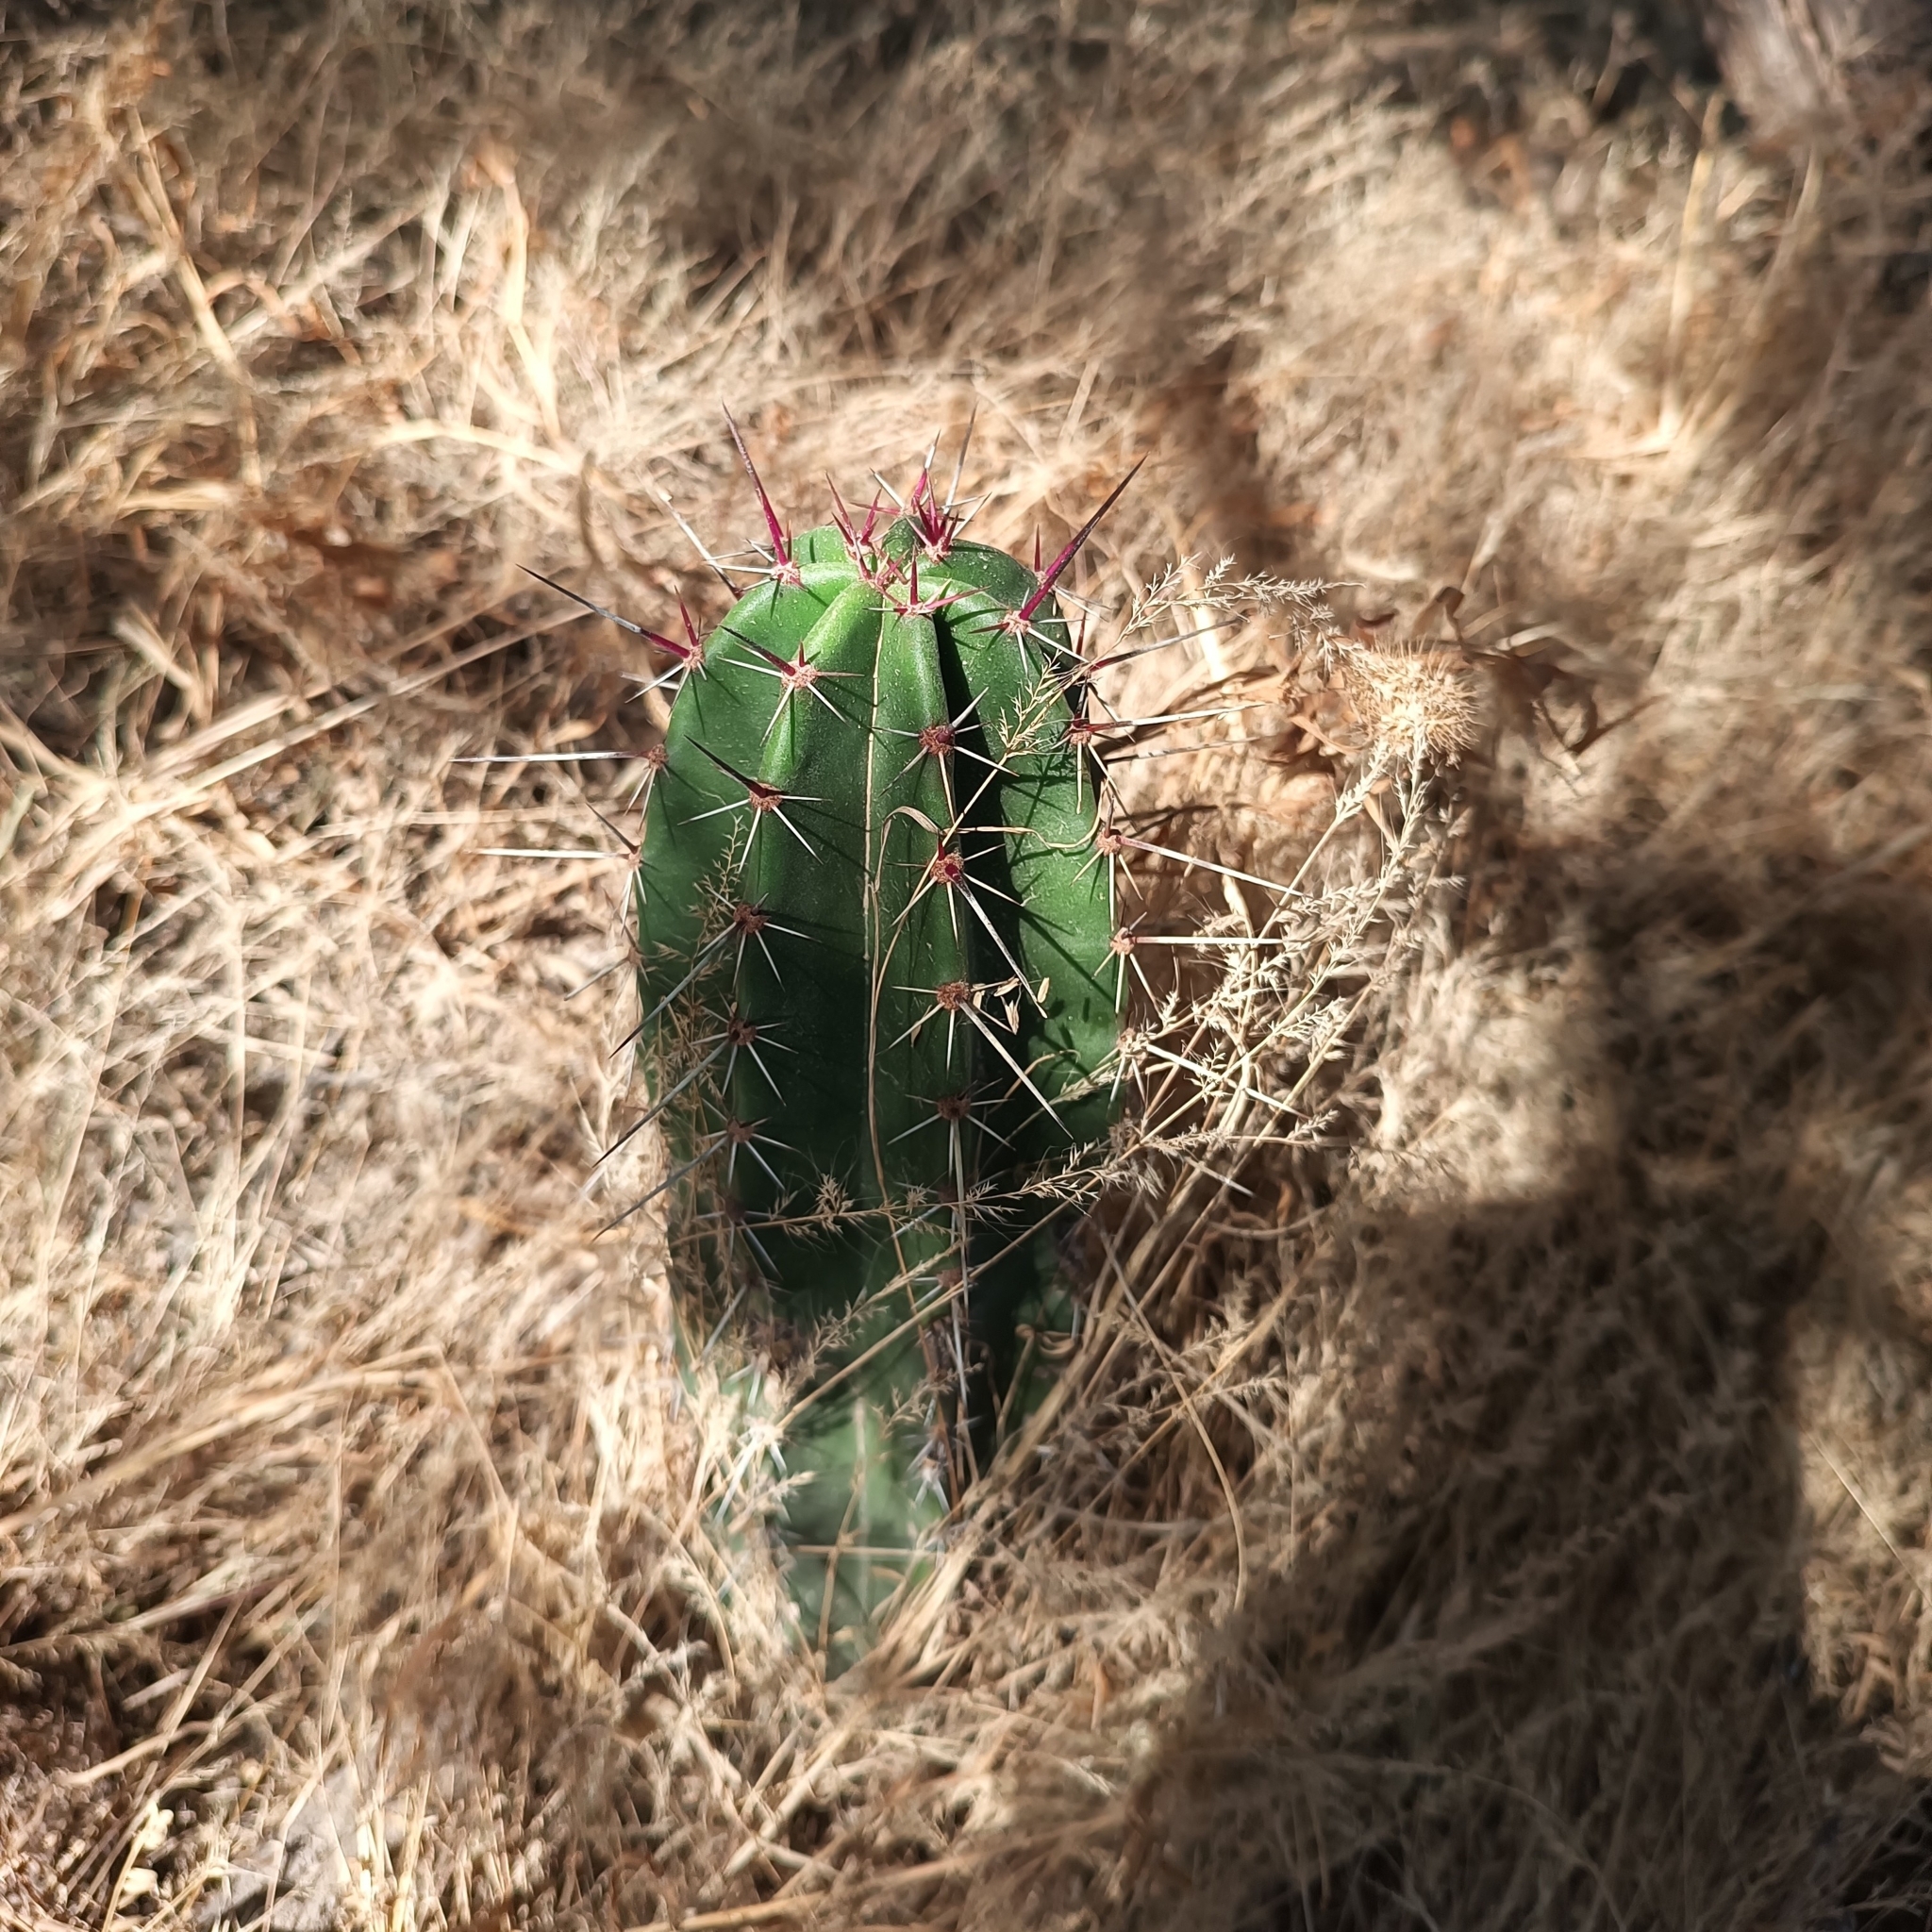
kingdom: Plantae
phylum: Tracheophyta
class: Magnoliopsida
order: Caryophyllales
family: Cactaceae
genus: Stenocereus
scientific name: Stenocereus queretaroensis
